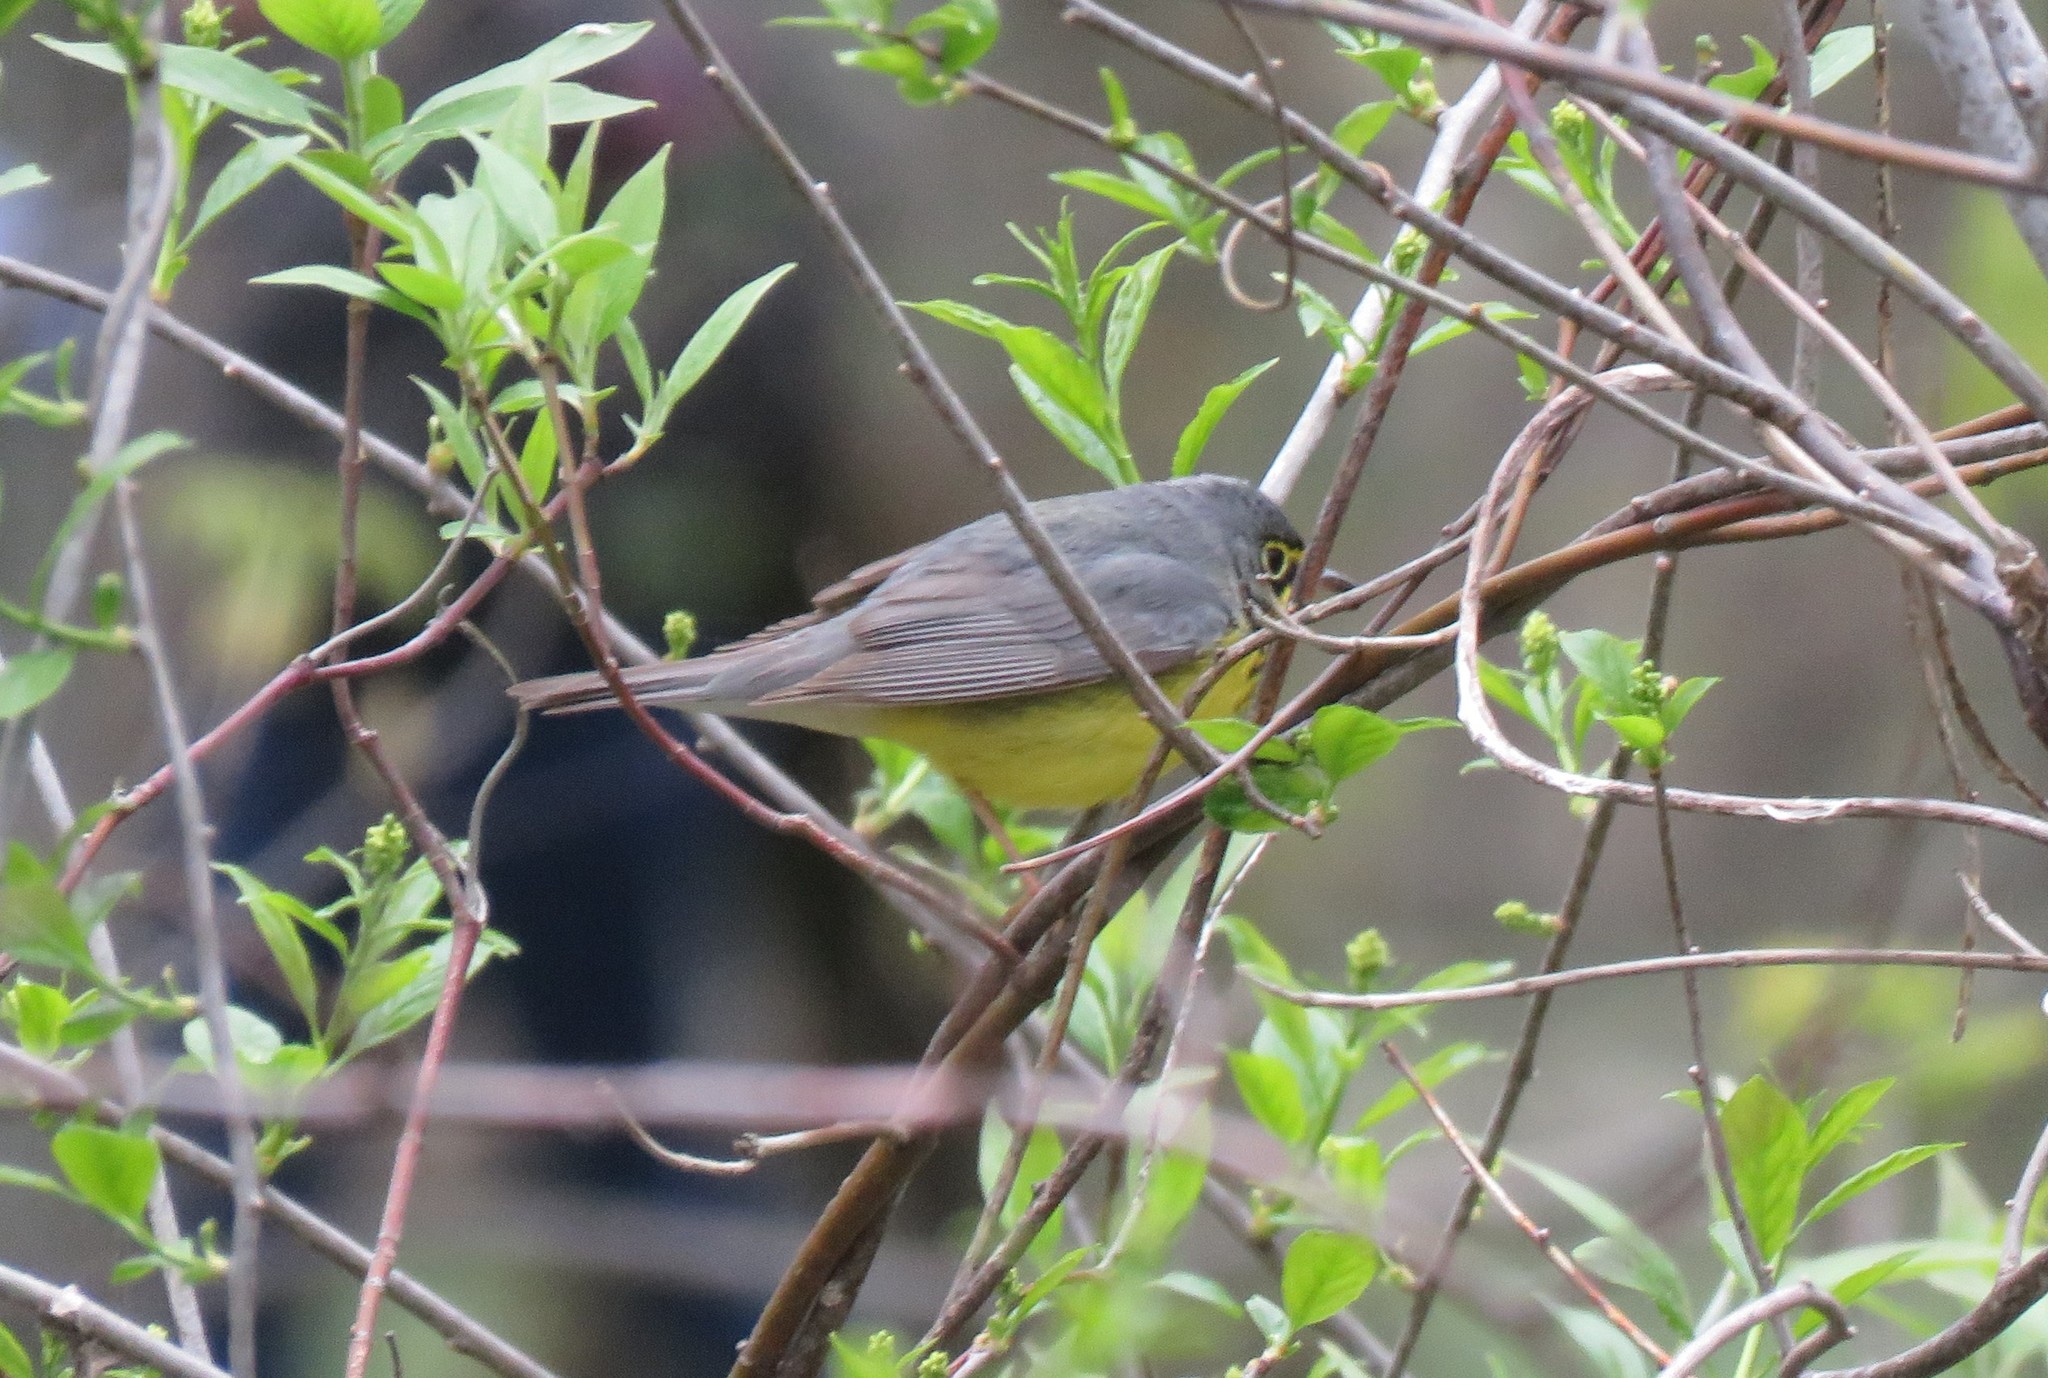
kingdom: Animalia
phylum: Chordata
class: Aves
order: Passeriformes
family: Parulidae
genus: Cardellina
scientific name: Cardellina canadensis
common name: Canada warbler
